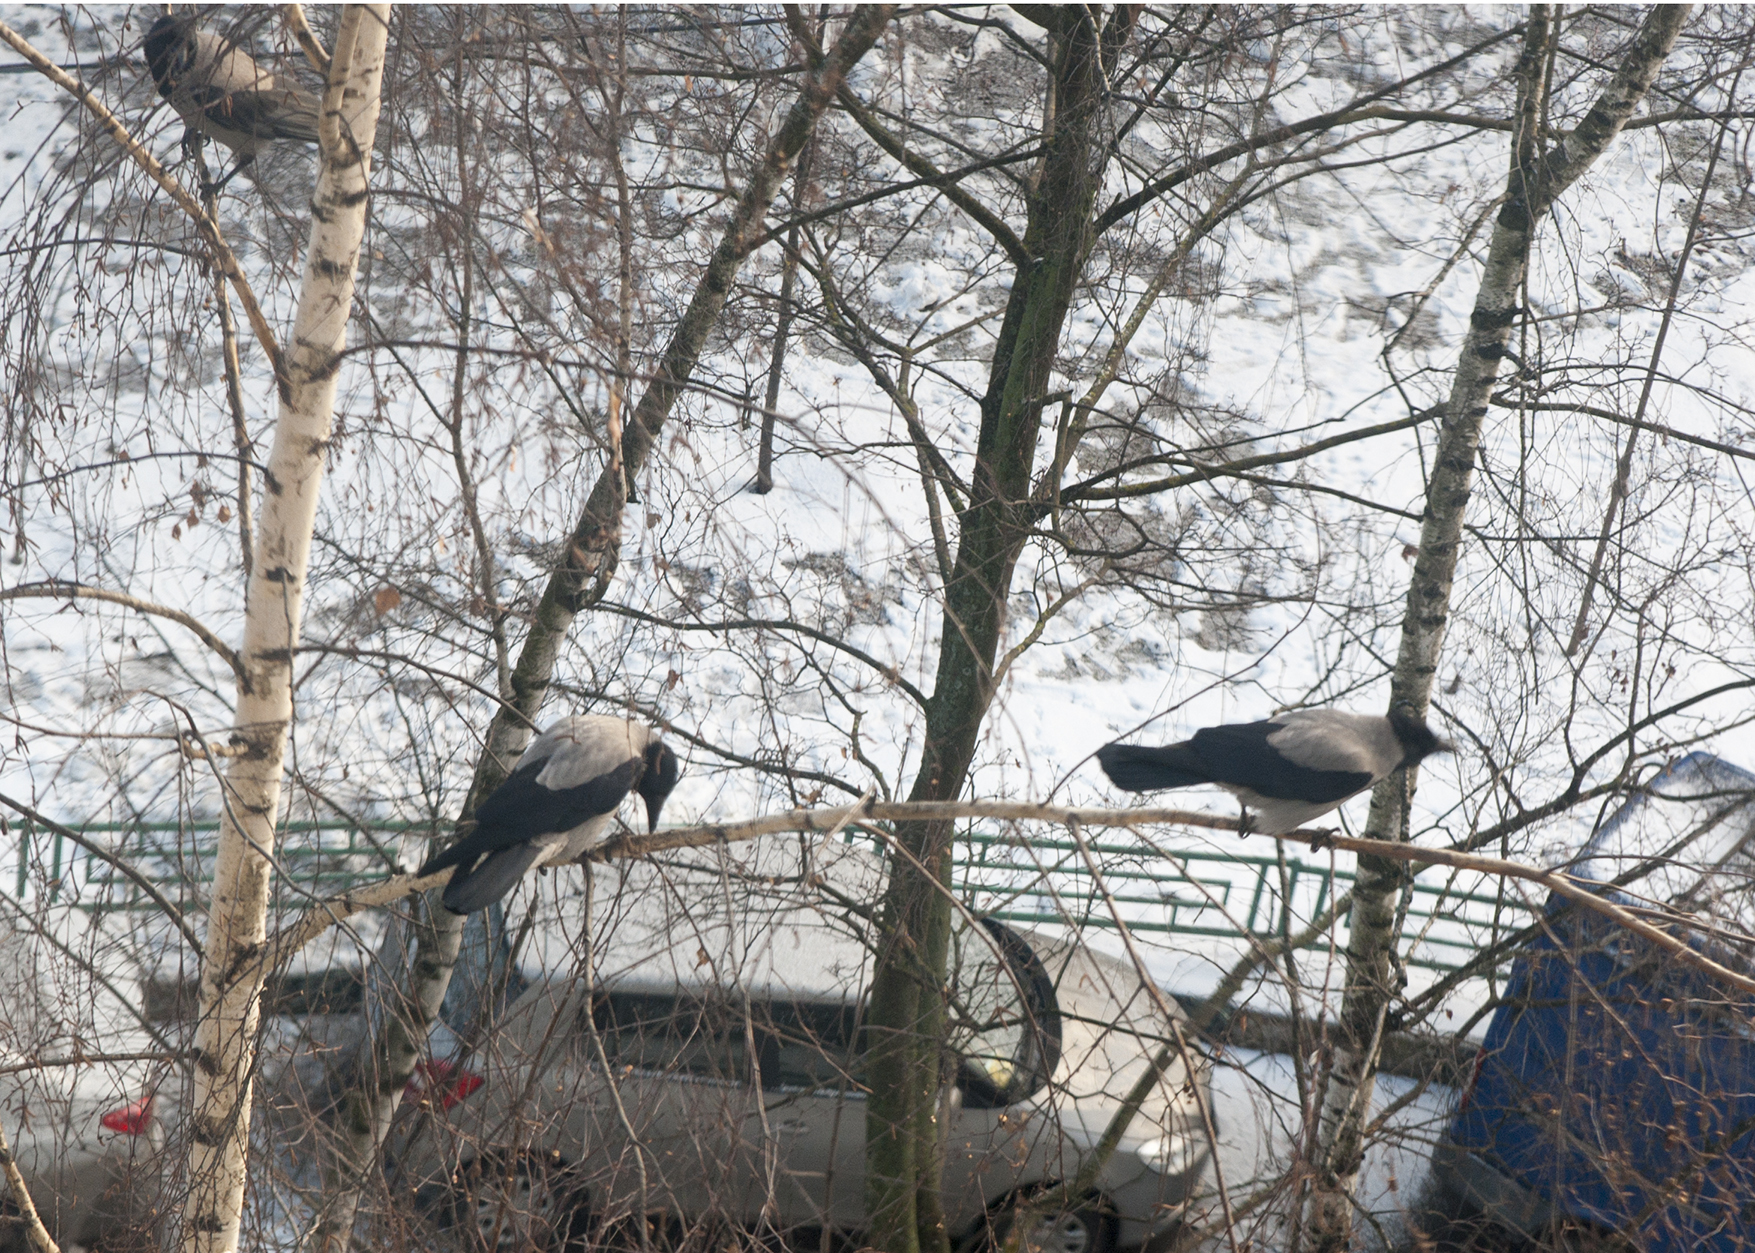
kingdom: Animalia
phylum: Chordata
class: Aves
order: Passeriformes
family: Corvidae
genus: Corvus
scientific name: Corvus cornix
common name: Hooded crow
